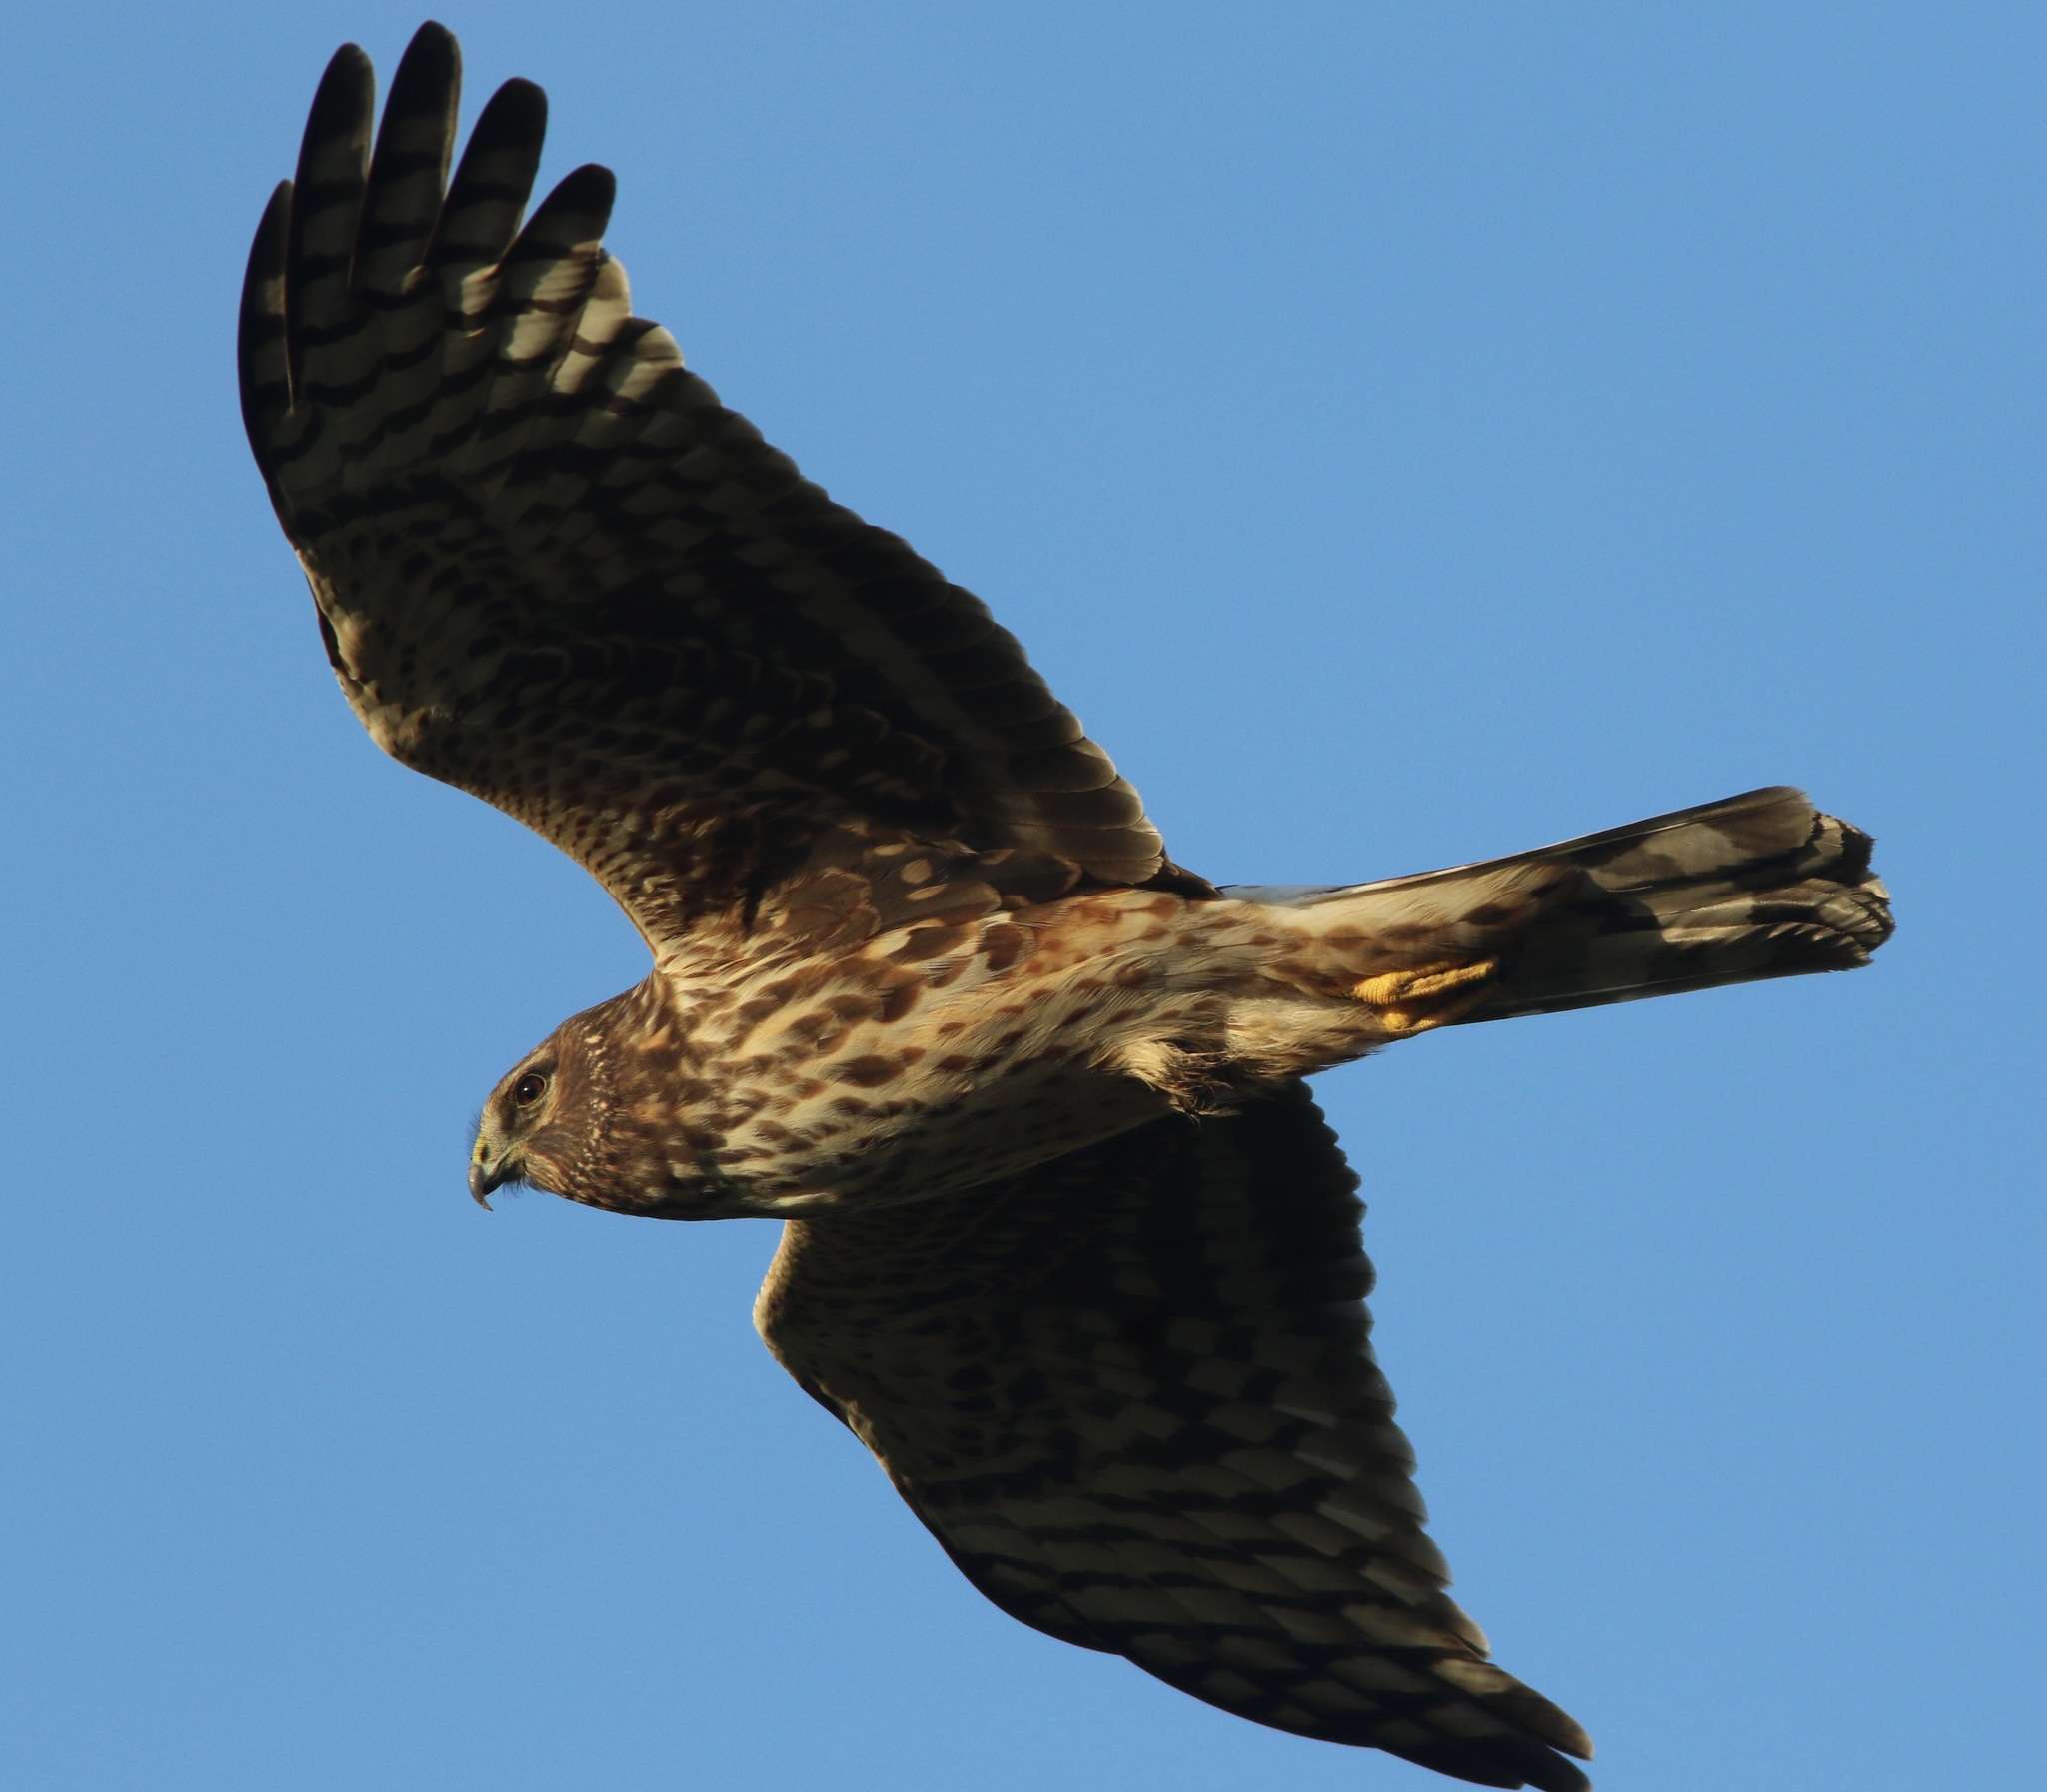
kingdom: Animalia
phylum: Chordata
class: Aves
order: Accipitriformes
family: Accipitridae
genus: Circus
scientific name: Circus cyaneus
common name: Hen harrier
